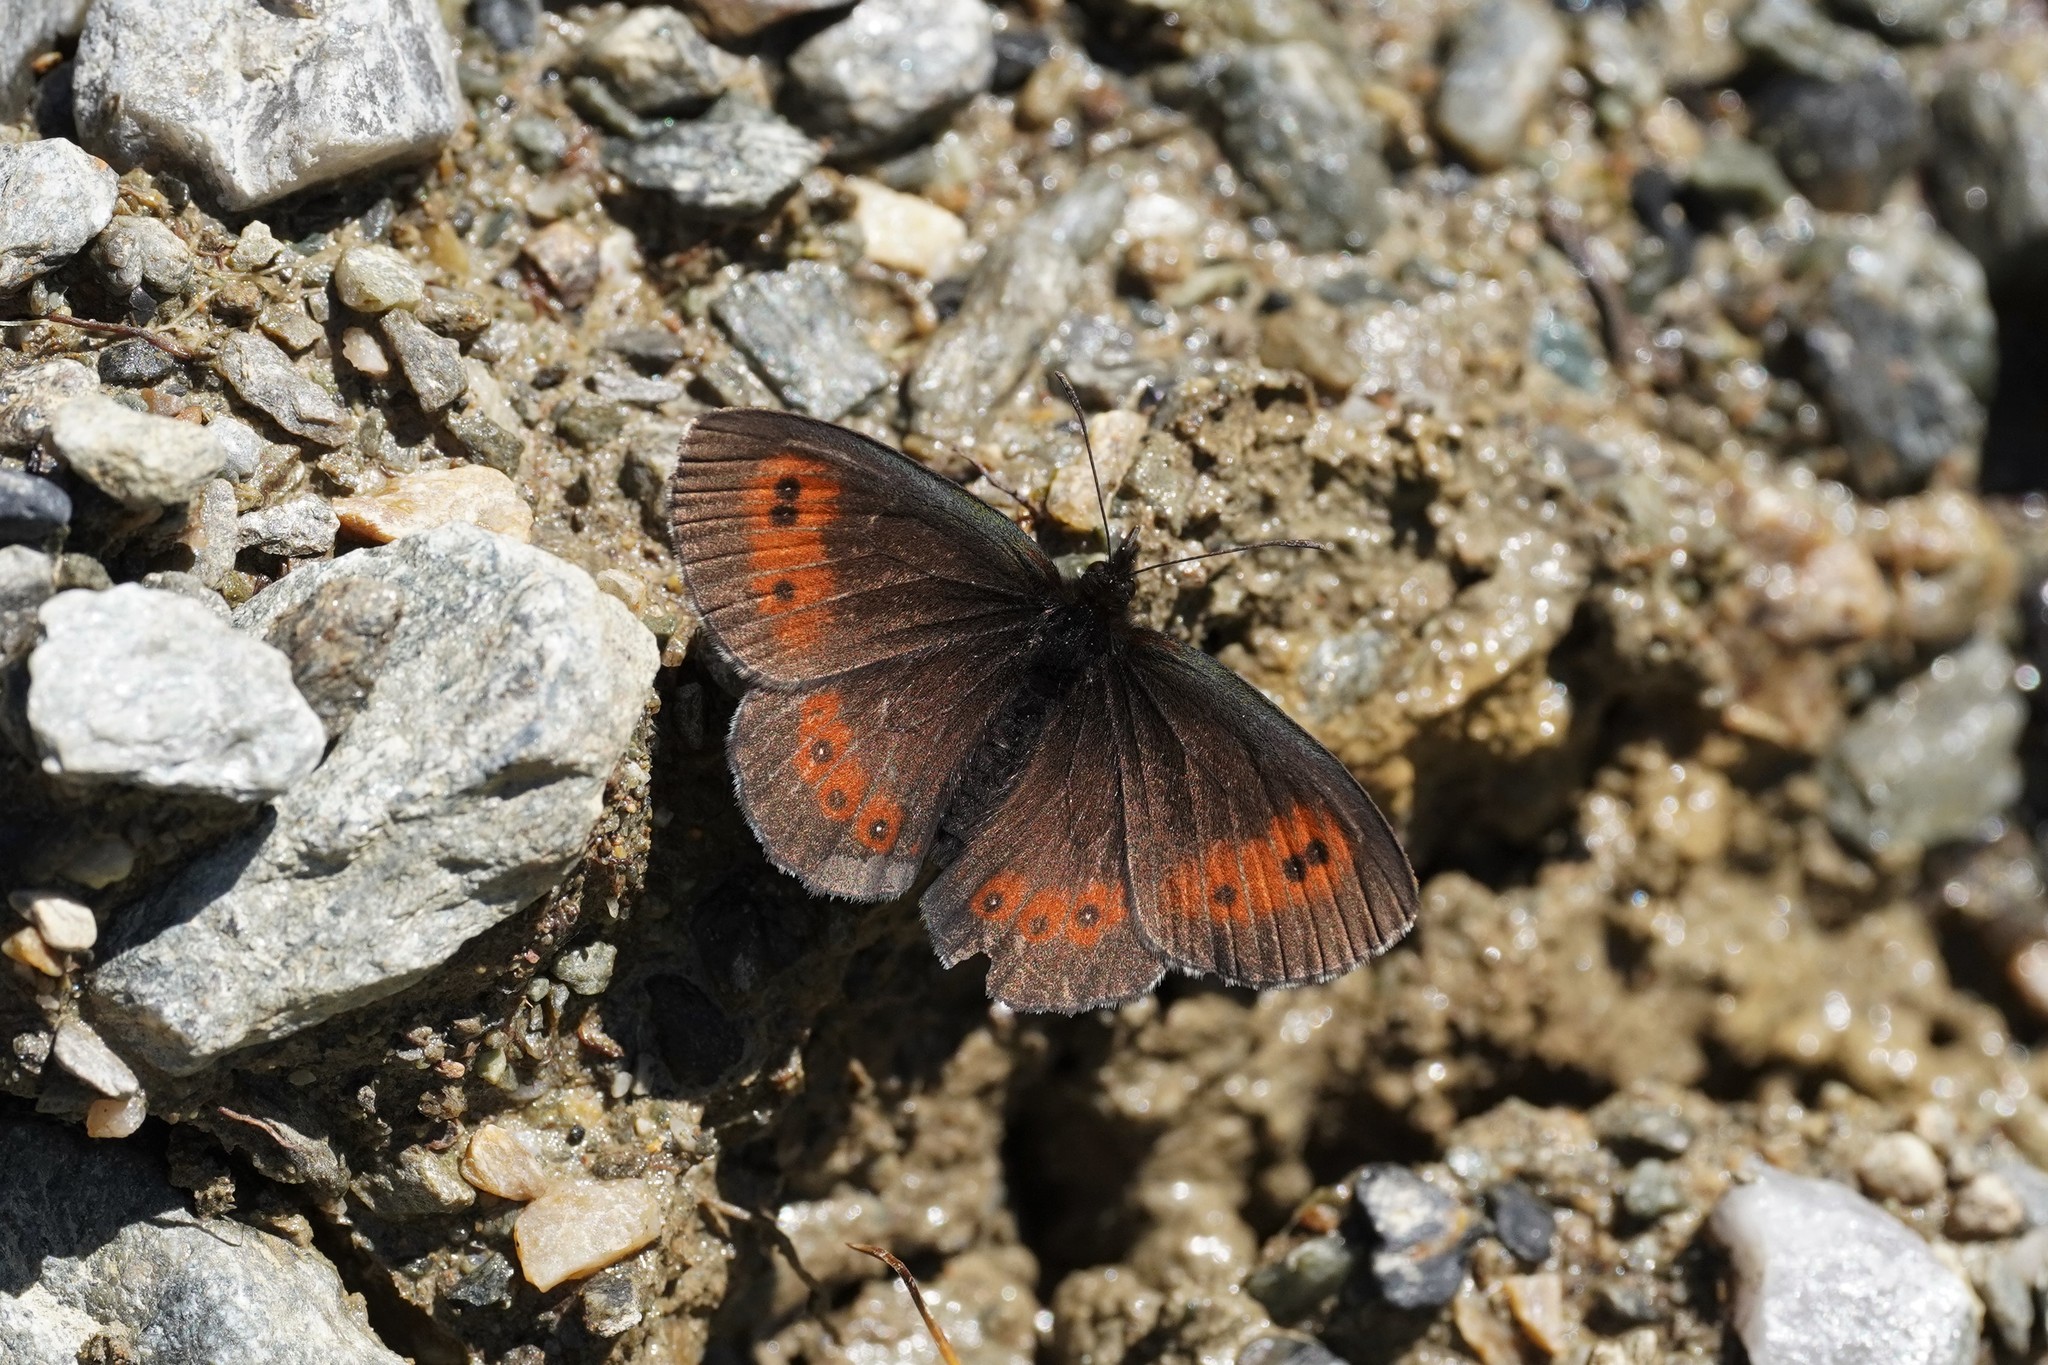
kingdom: Animalia
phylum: Arthropoda
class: Insecta
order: Lepidoptera
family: Nymphalidae
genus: Erebia
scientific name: Erebia euryale
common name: Large ringlet
